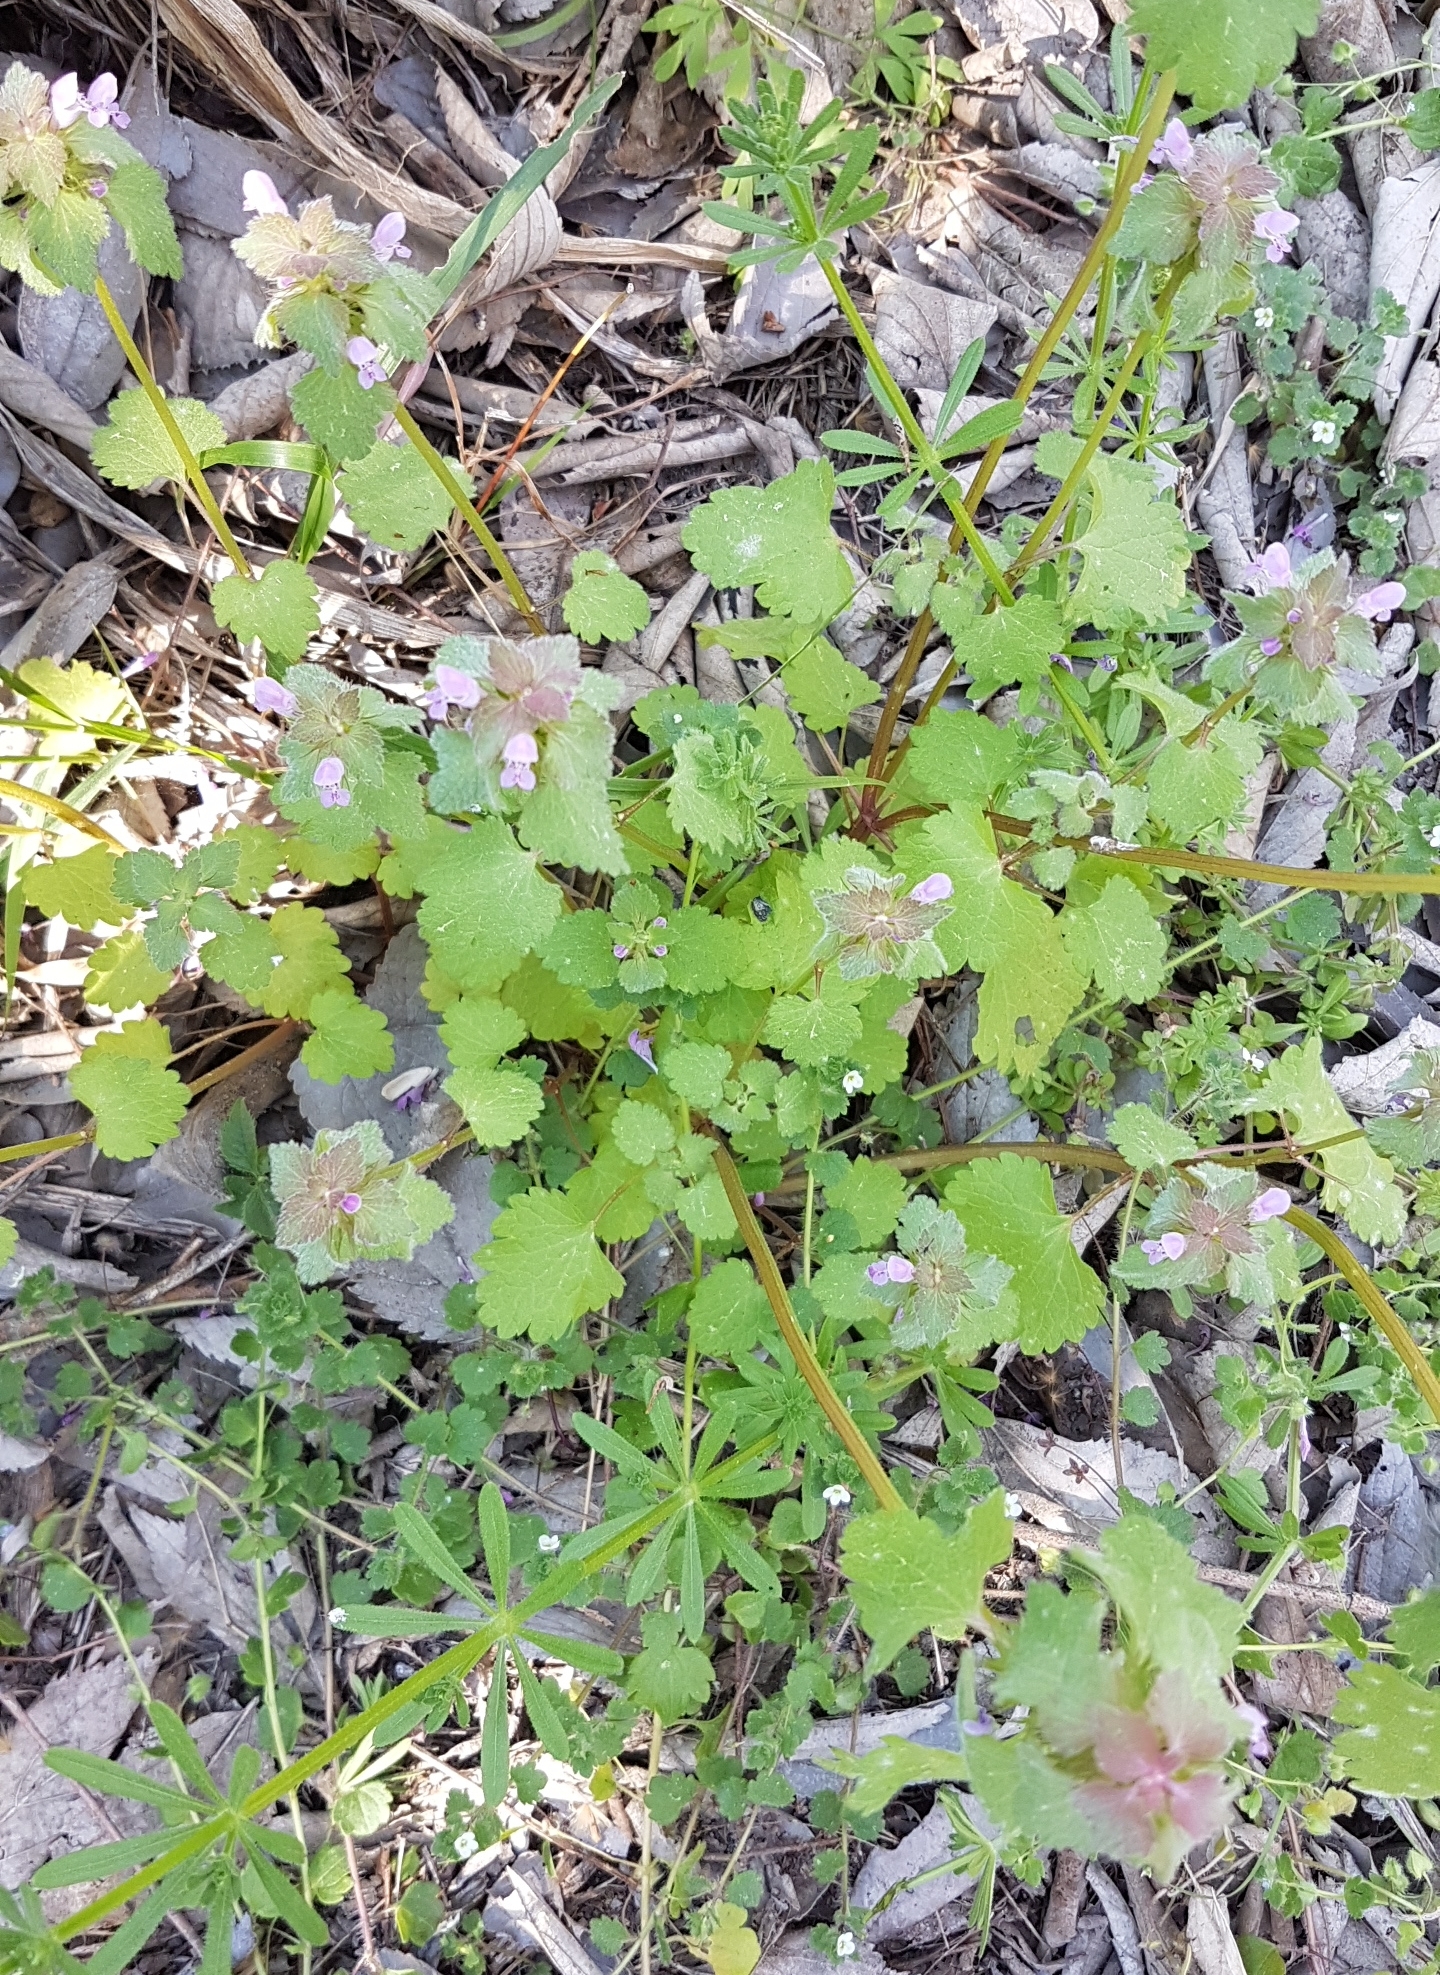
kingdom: Plantae
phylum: Tracheophyta
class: Magnoliopsida
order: Lamiales
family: Lamiaceae
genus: Lamium
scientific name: Lamium purpureum
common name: Red dead-nettle
